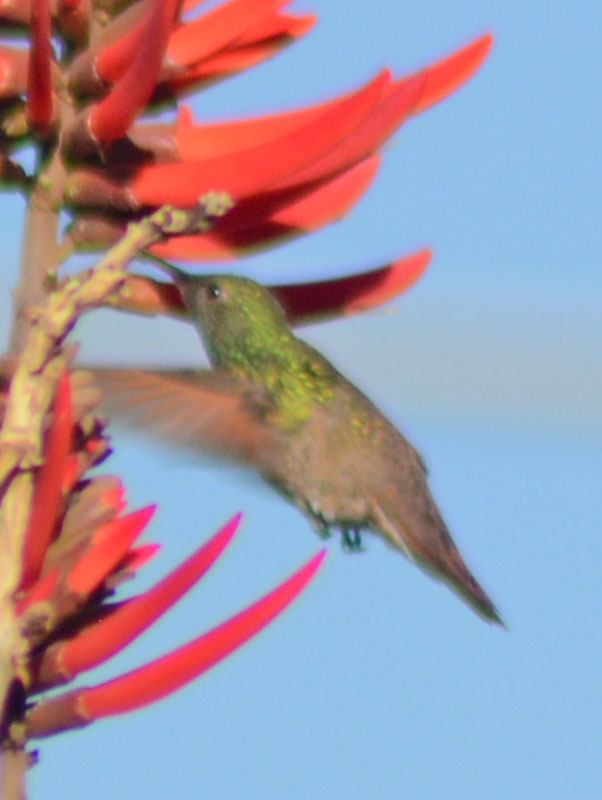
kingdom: Animalia
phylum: Chordata
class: Aves
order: Apodiformes
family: Trochilidae
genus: Saucerottia
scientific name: Saucerottia beryllina
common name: Berylline hummingbird
